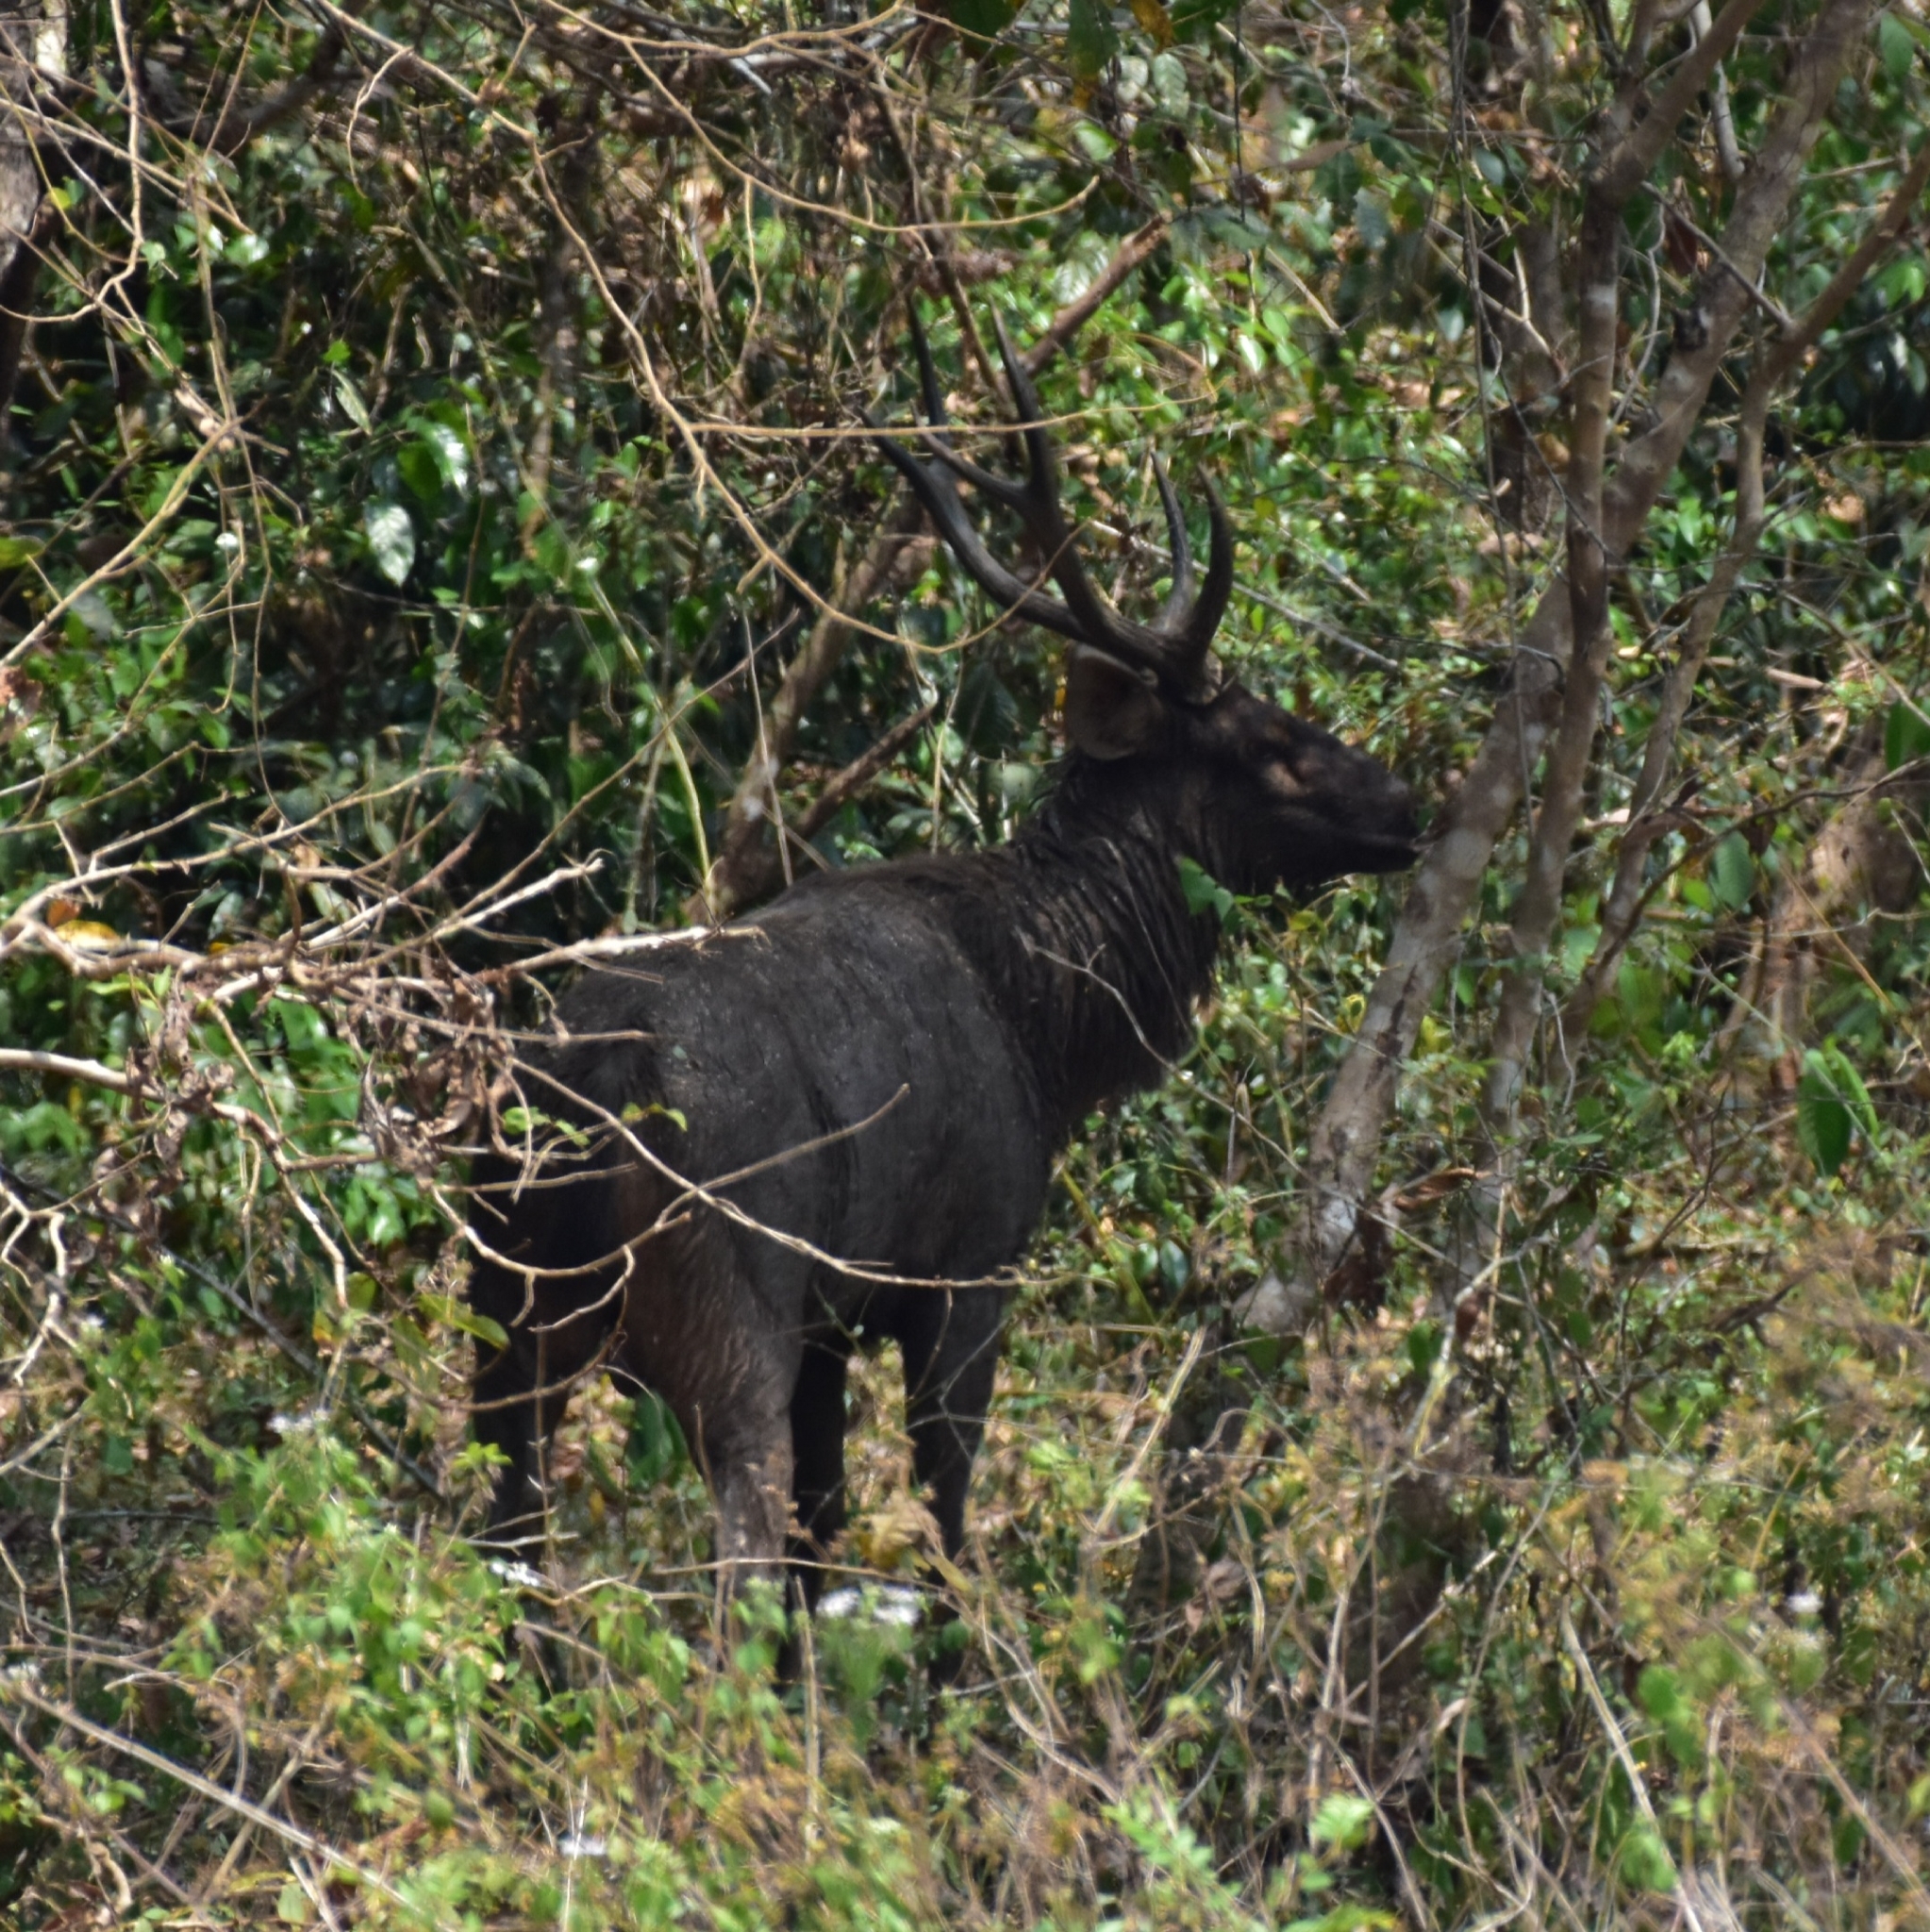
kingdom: Animalia
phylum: Chordata
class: Mammalia
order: Artiodactyla
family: Cervidae
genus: Rusa
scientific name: Rusa unicolor
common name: Sambar
